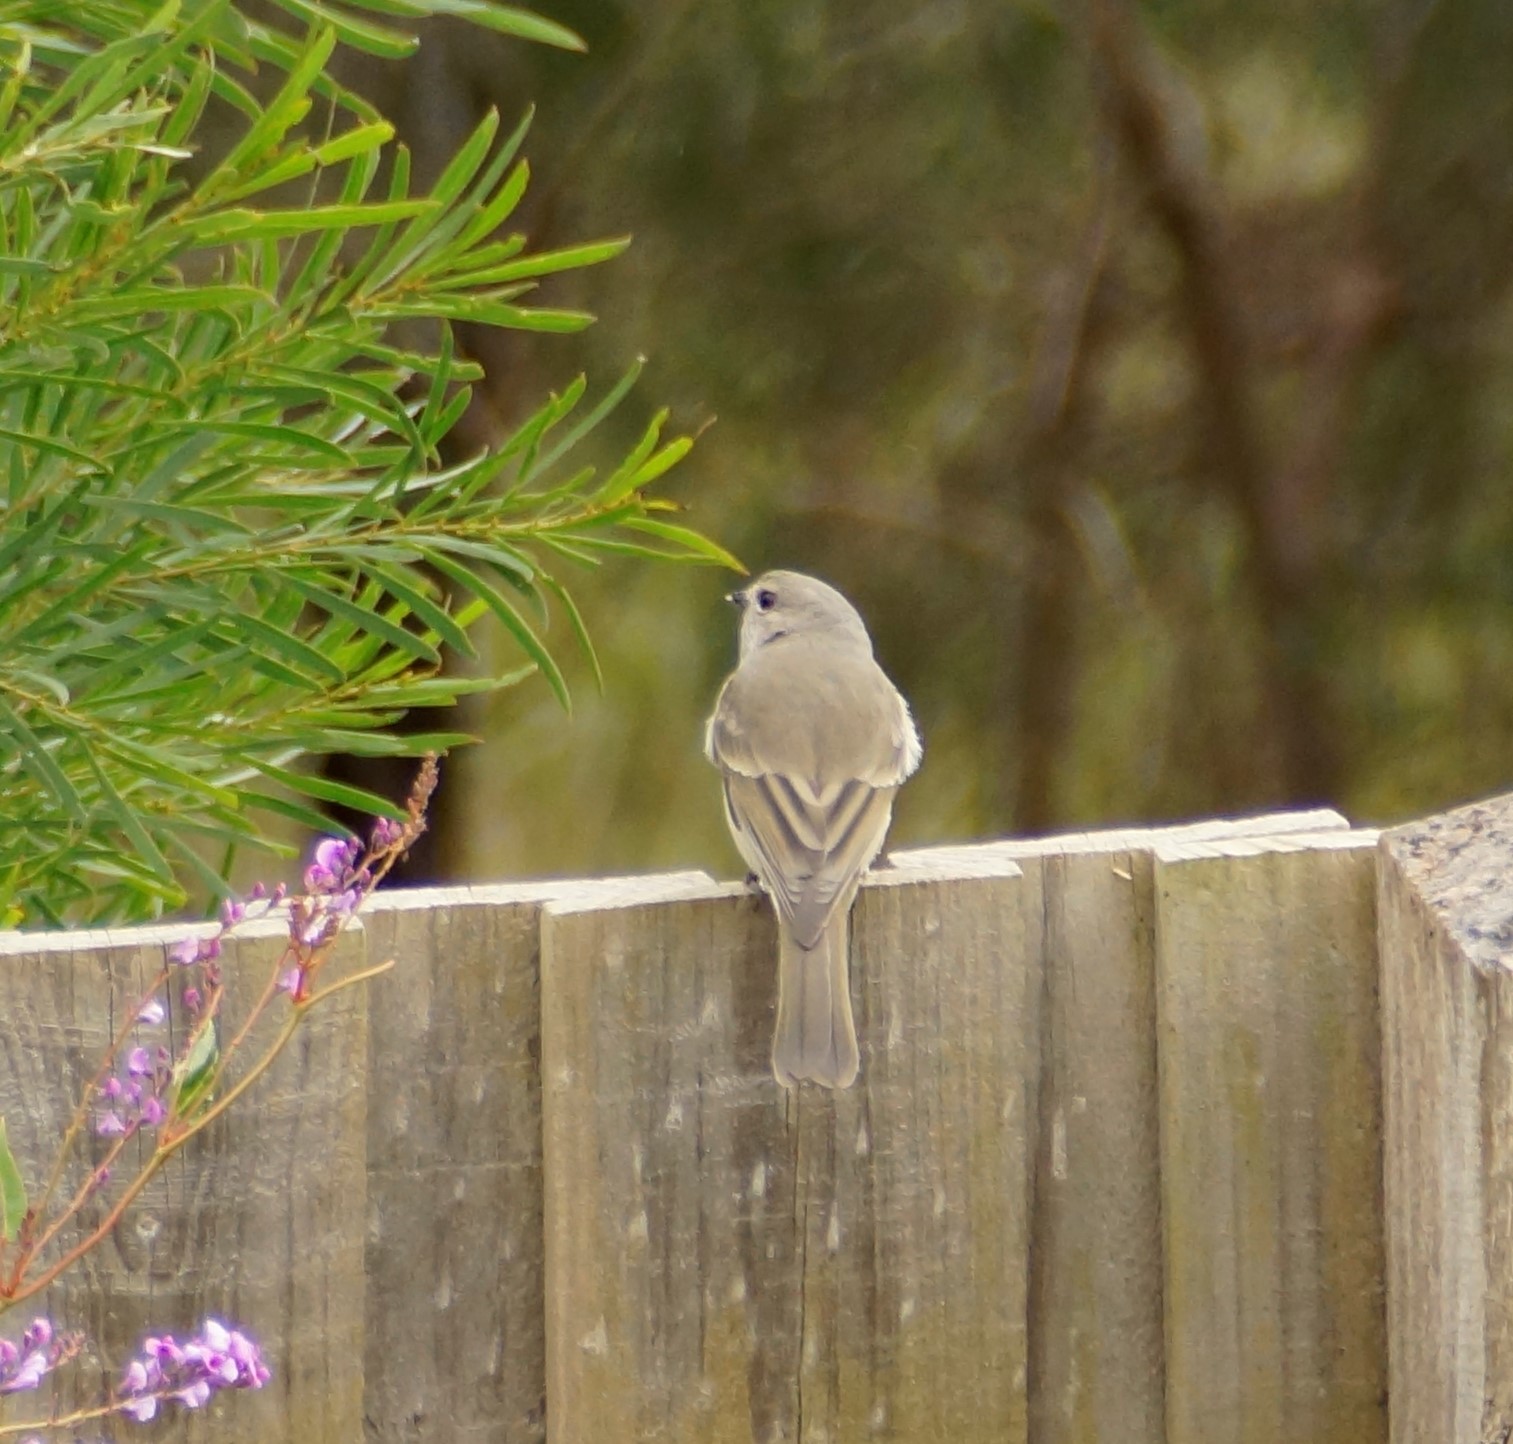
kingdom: Animalia
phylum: Chordata
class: Aves
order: Passeriformes
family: Pachycephalidae
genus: Pachycephala
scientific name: Pachycephala pectoralis
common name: Australian golden whistler
